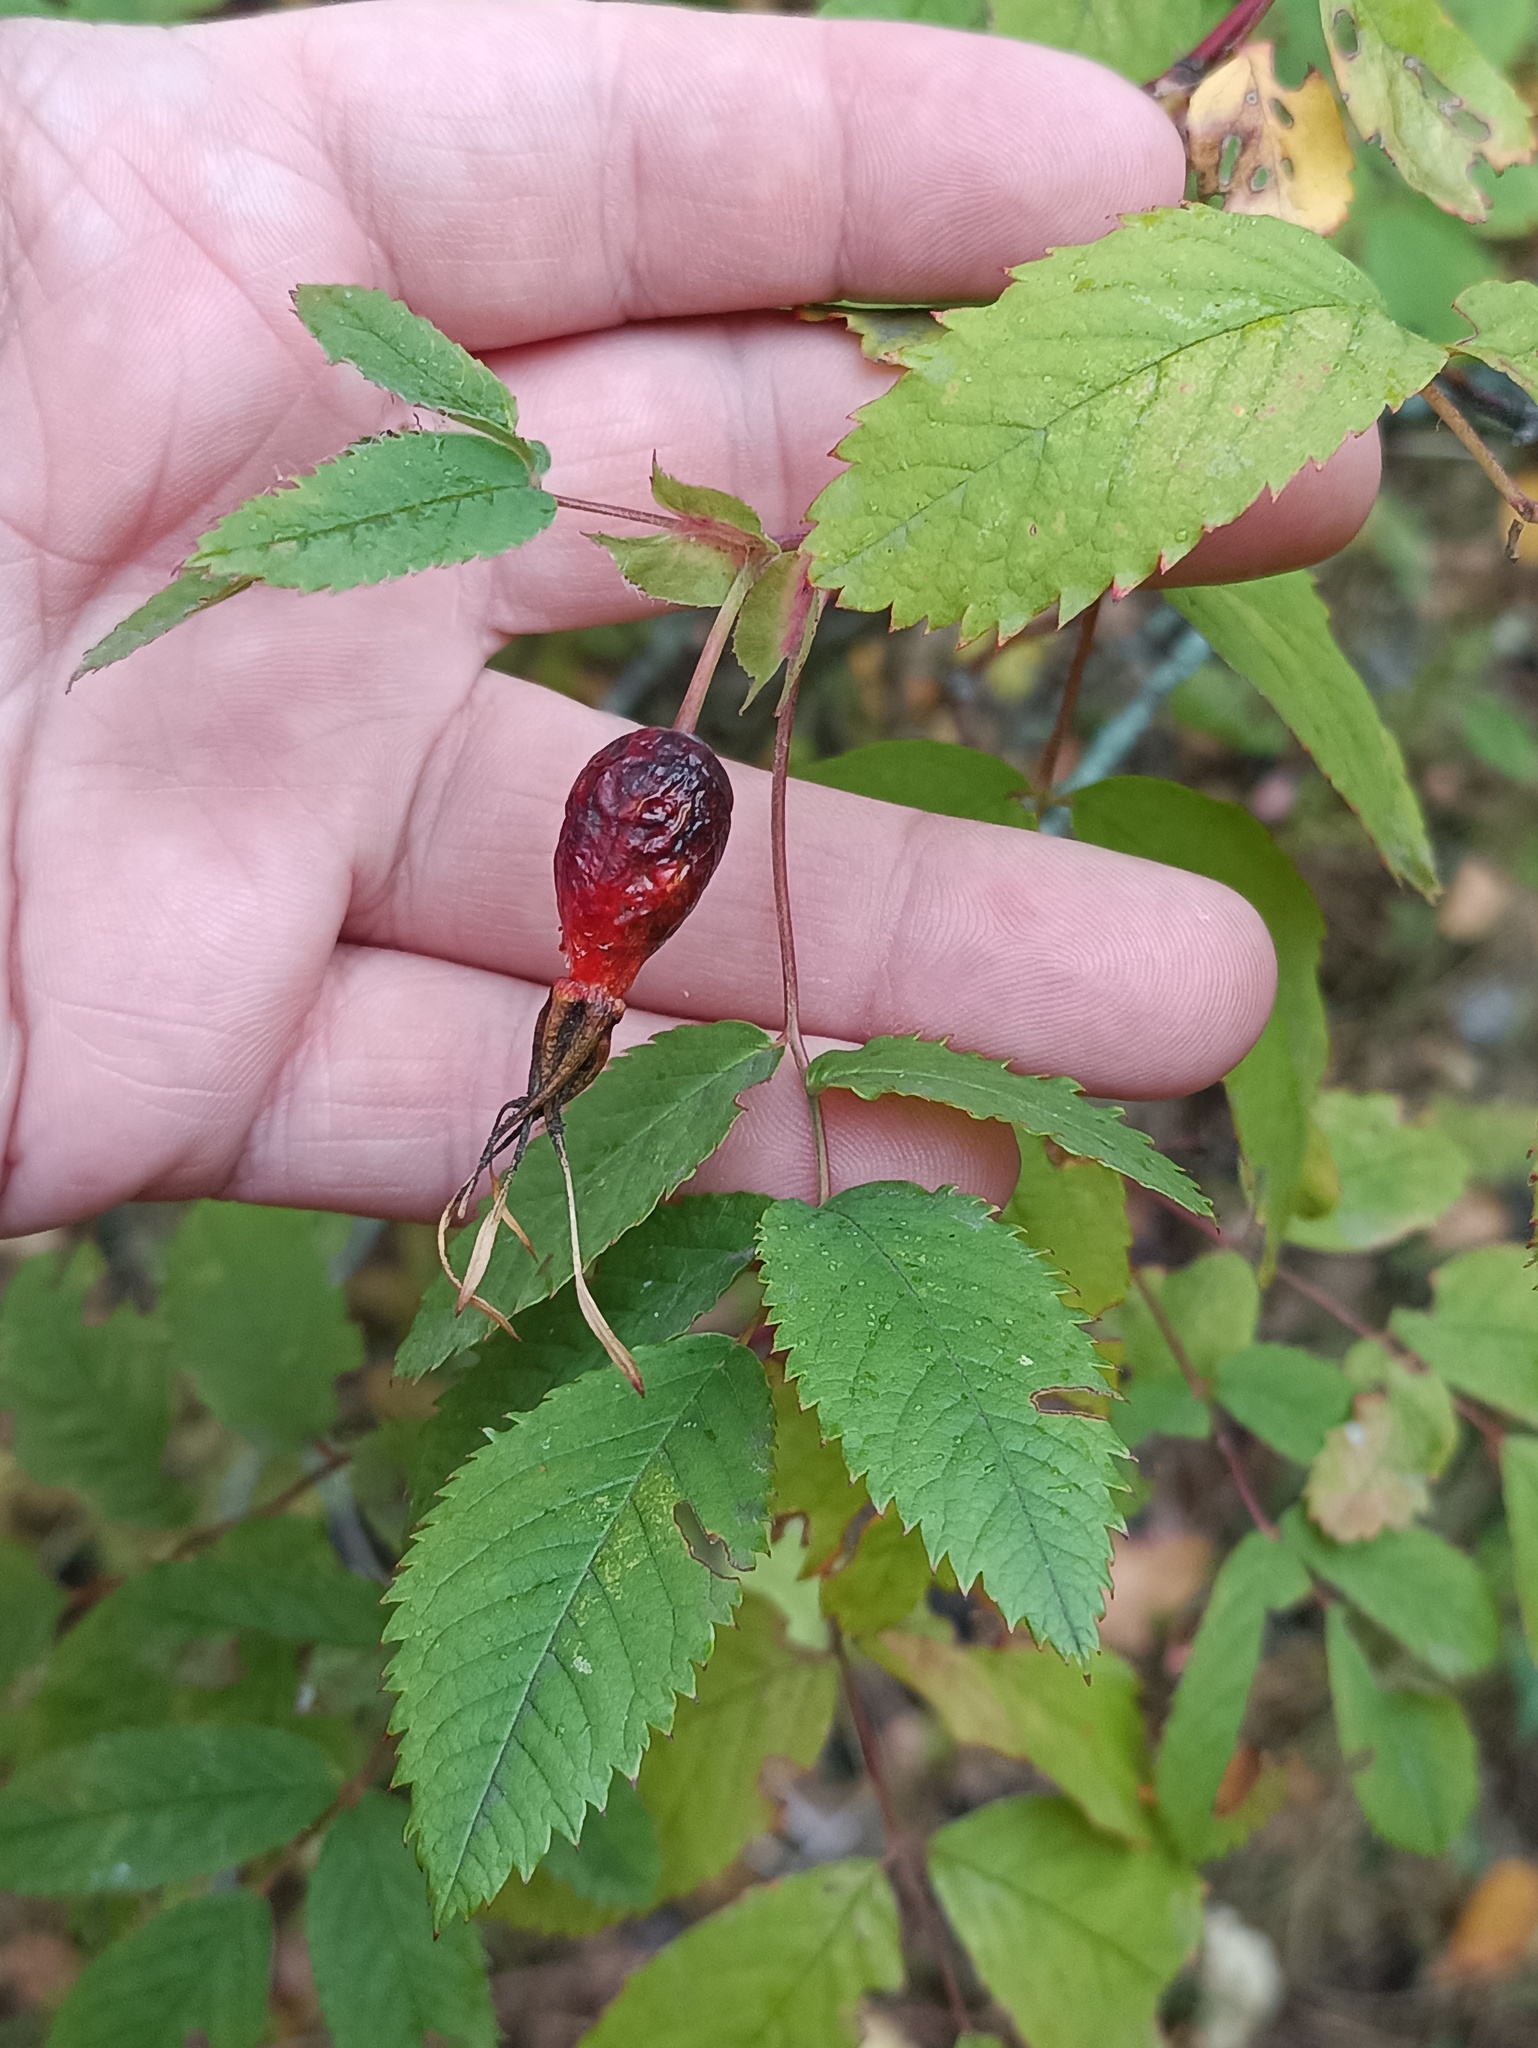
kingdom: Plantae
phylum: Tracheophyta
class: Magnoliopsida
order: Rosales
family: Rosaceae
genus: Rosa
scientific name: Rosa glabrifolia
